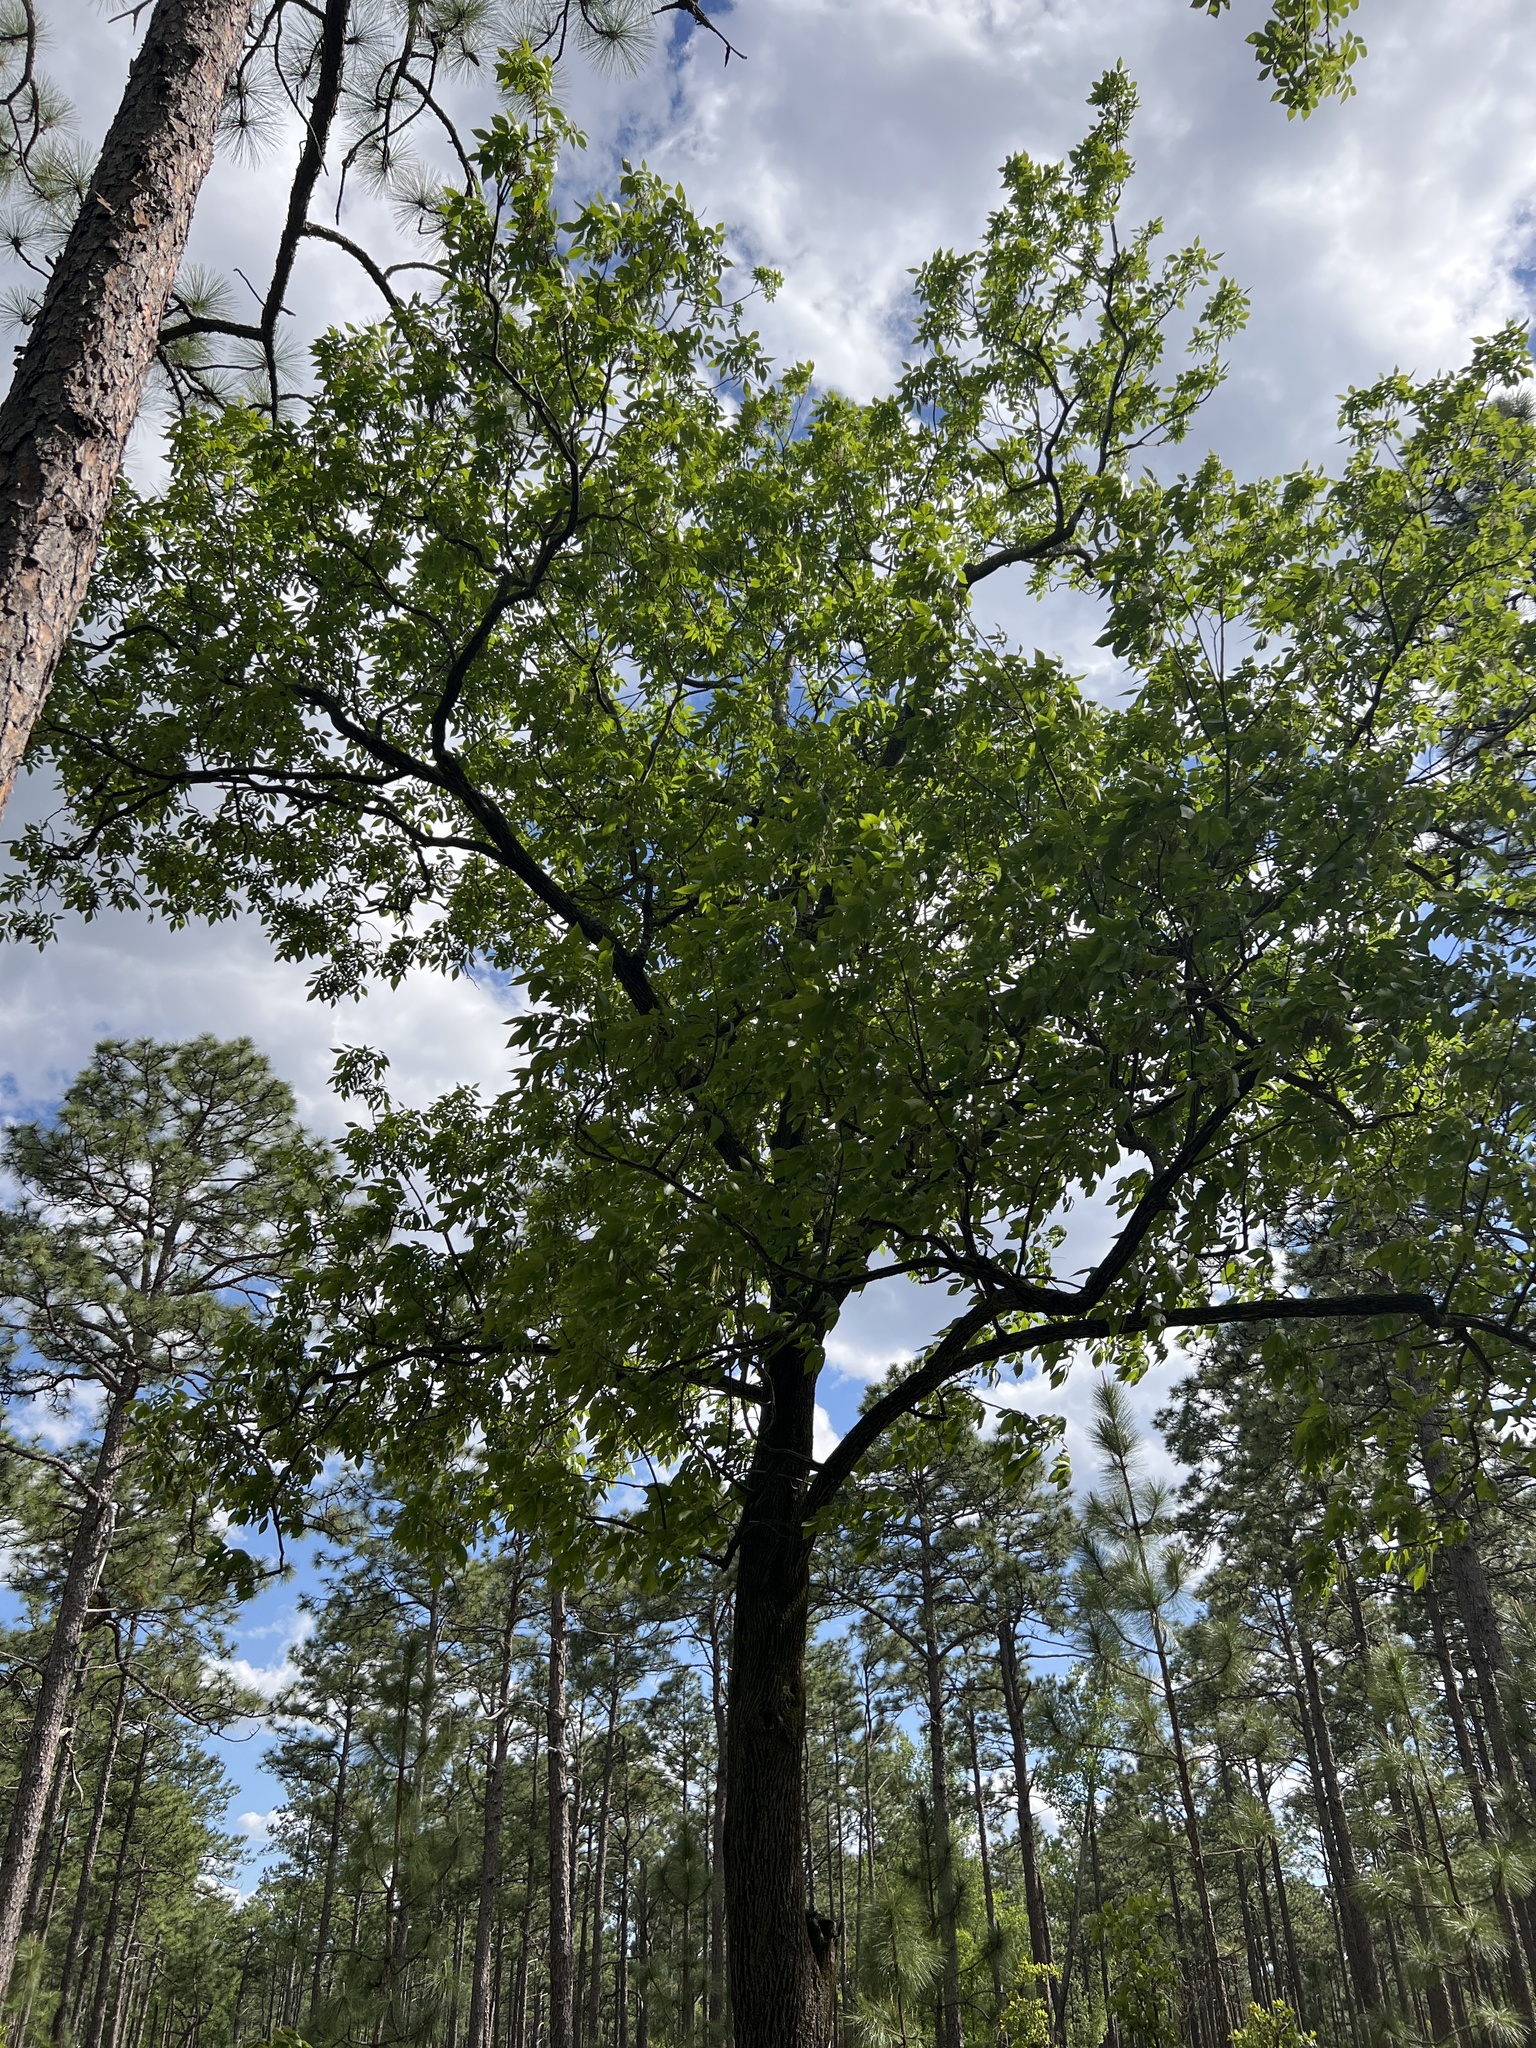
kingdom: Plantae
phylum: Tracheophyta
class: Magnoliopsida
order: Fagales
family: Juglandaceae
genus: Carya
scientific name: Carya pallida
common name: Sand hickory
